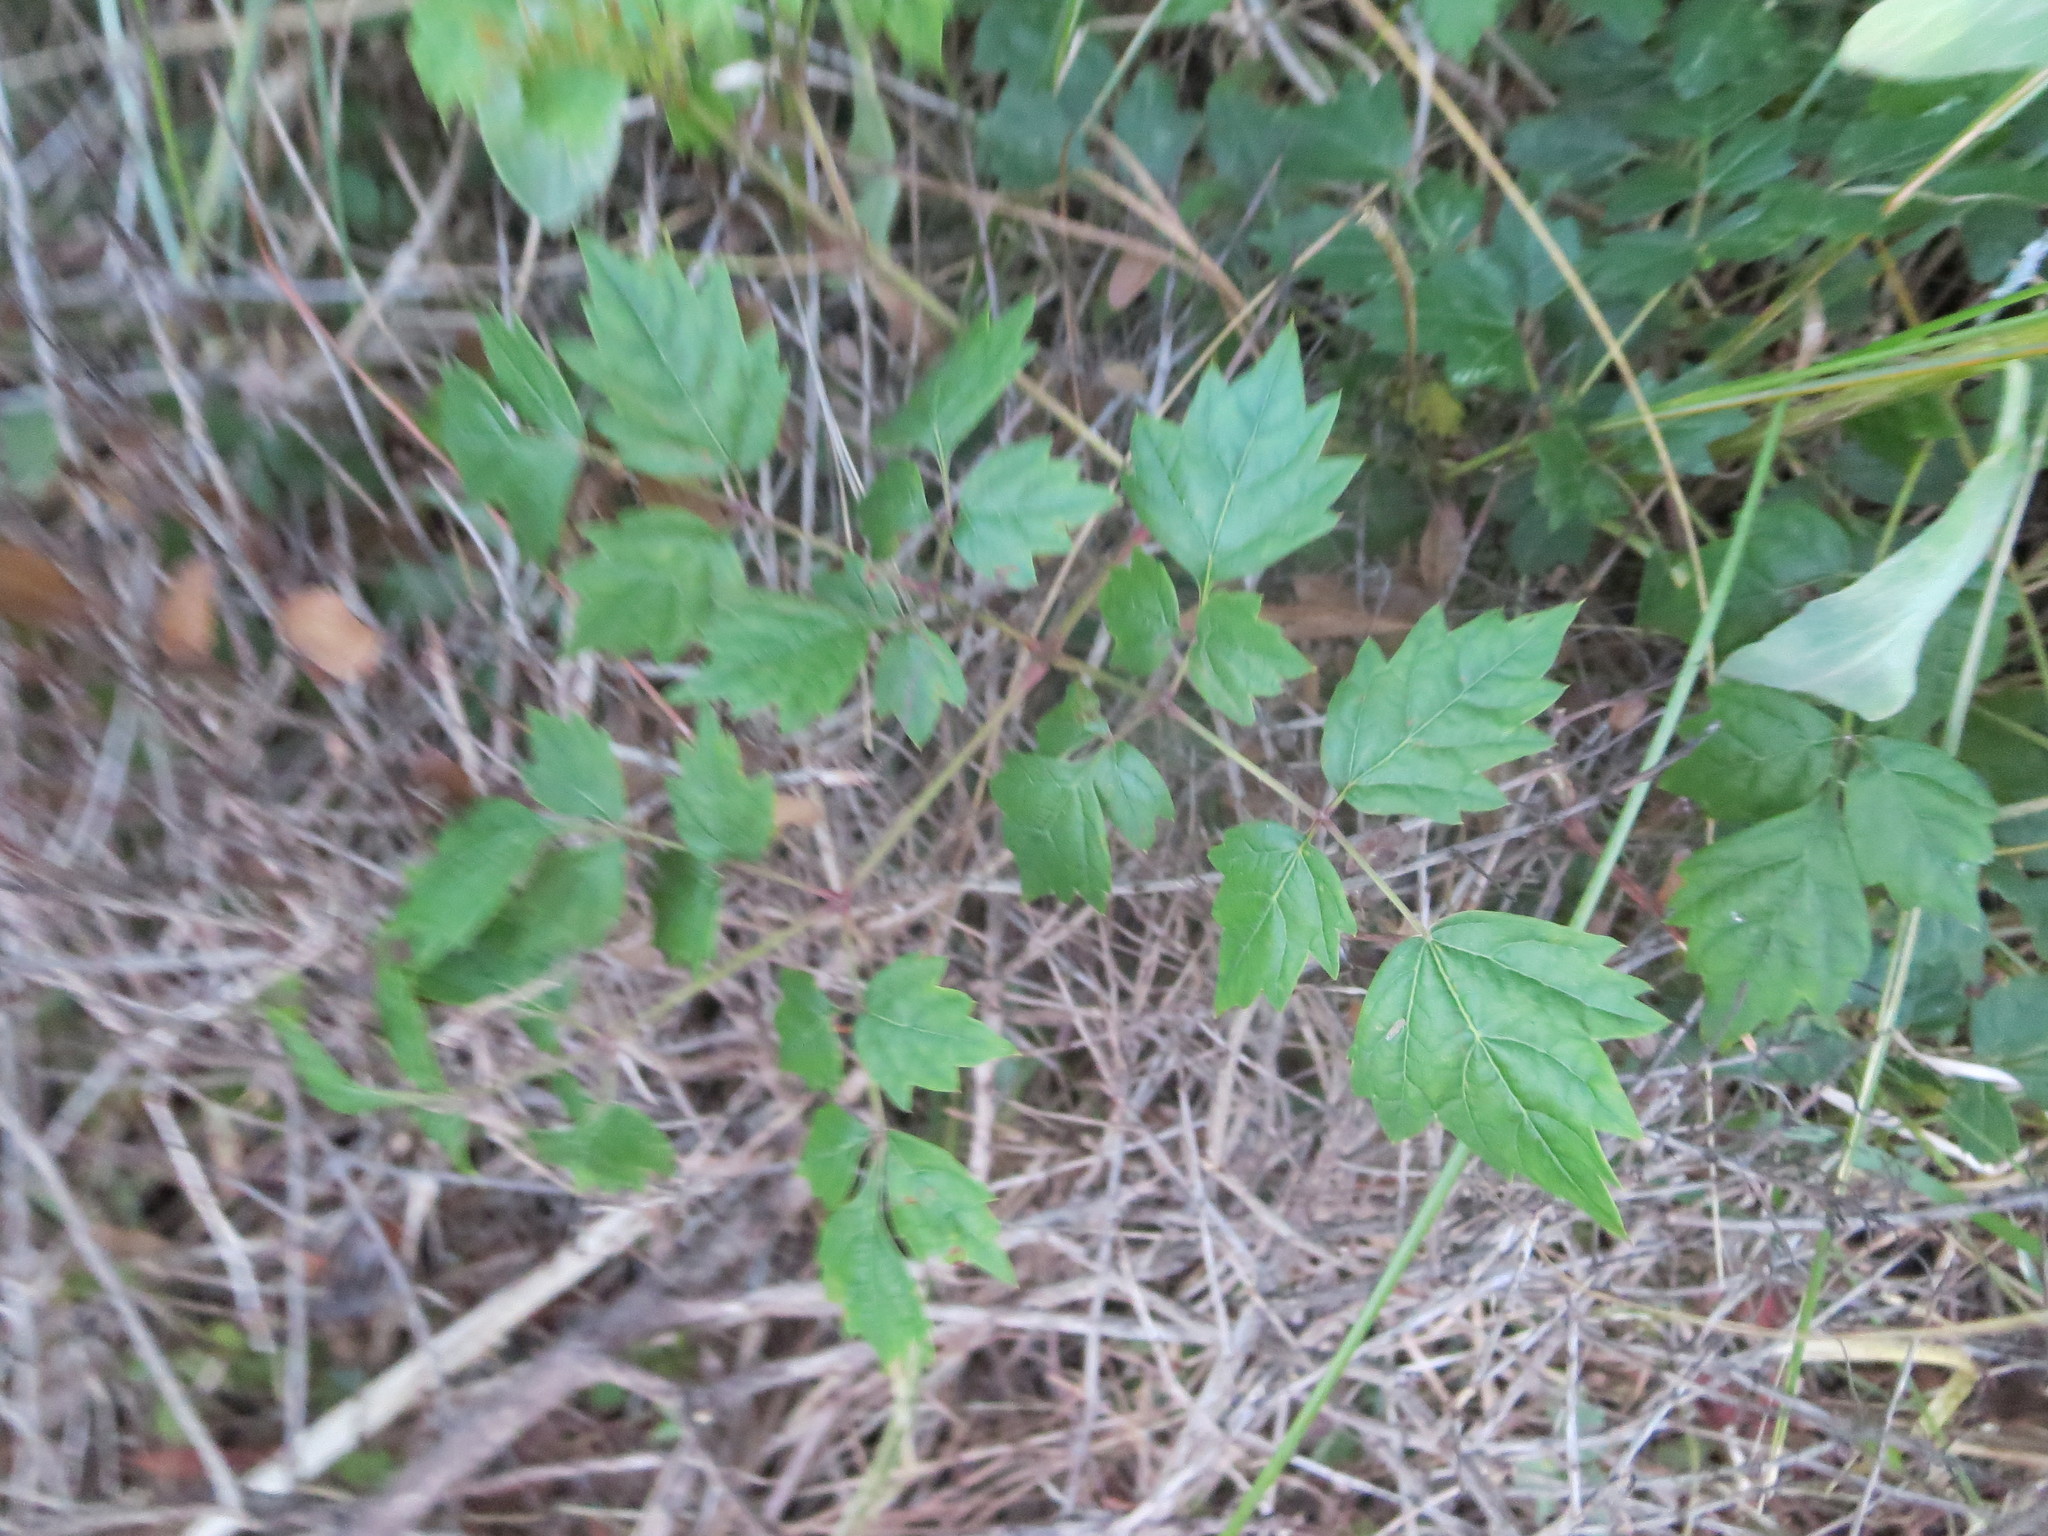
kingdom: Plantae
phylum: Tracheophyta
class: Magnoliopsida
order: Vitales
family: Vitaceae
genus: Nekemias
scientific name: Nekemias arborea
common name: Peppervine
